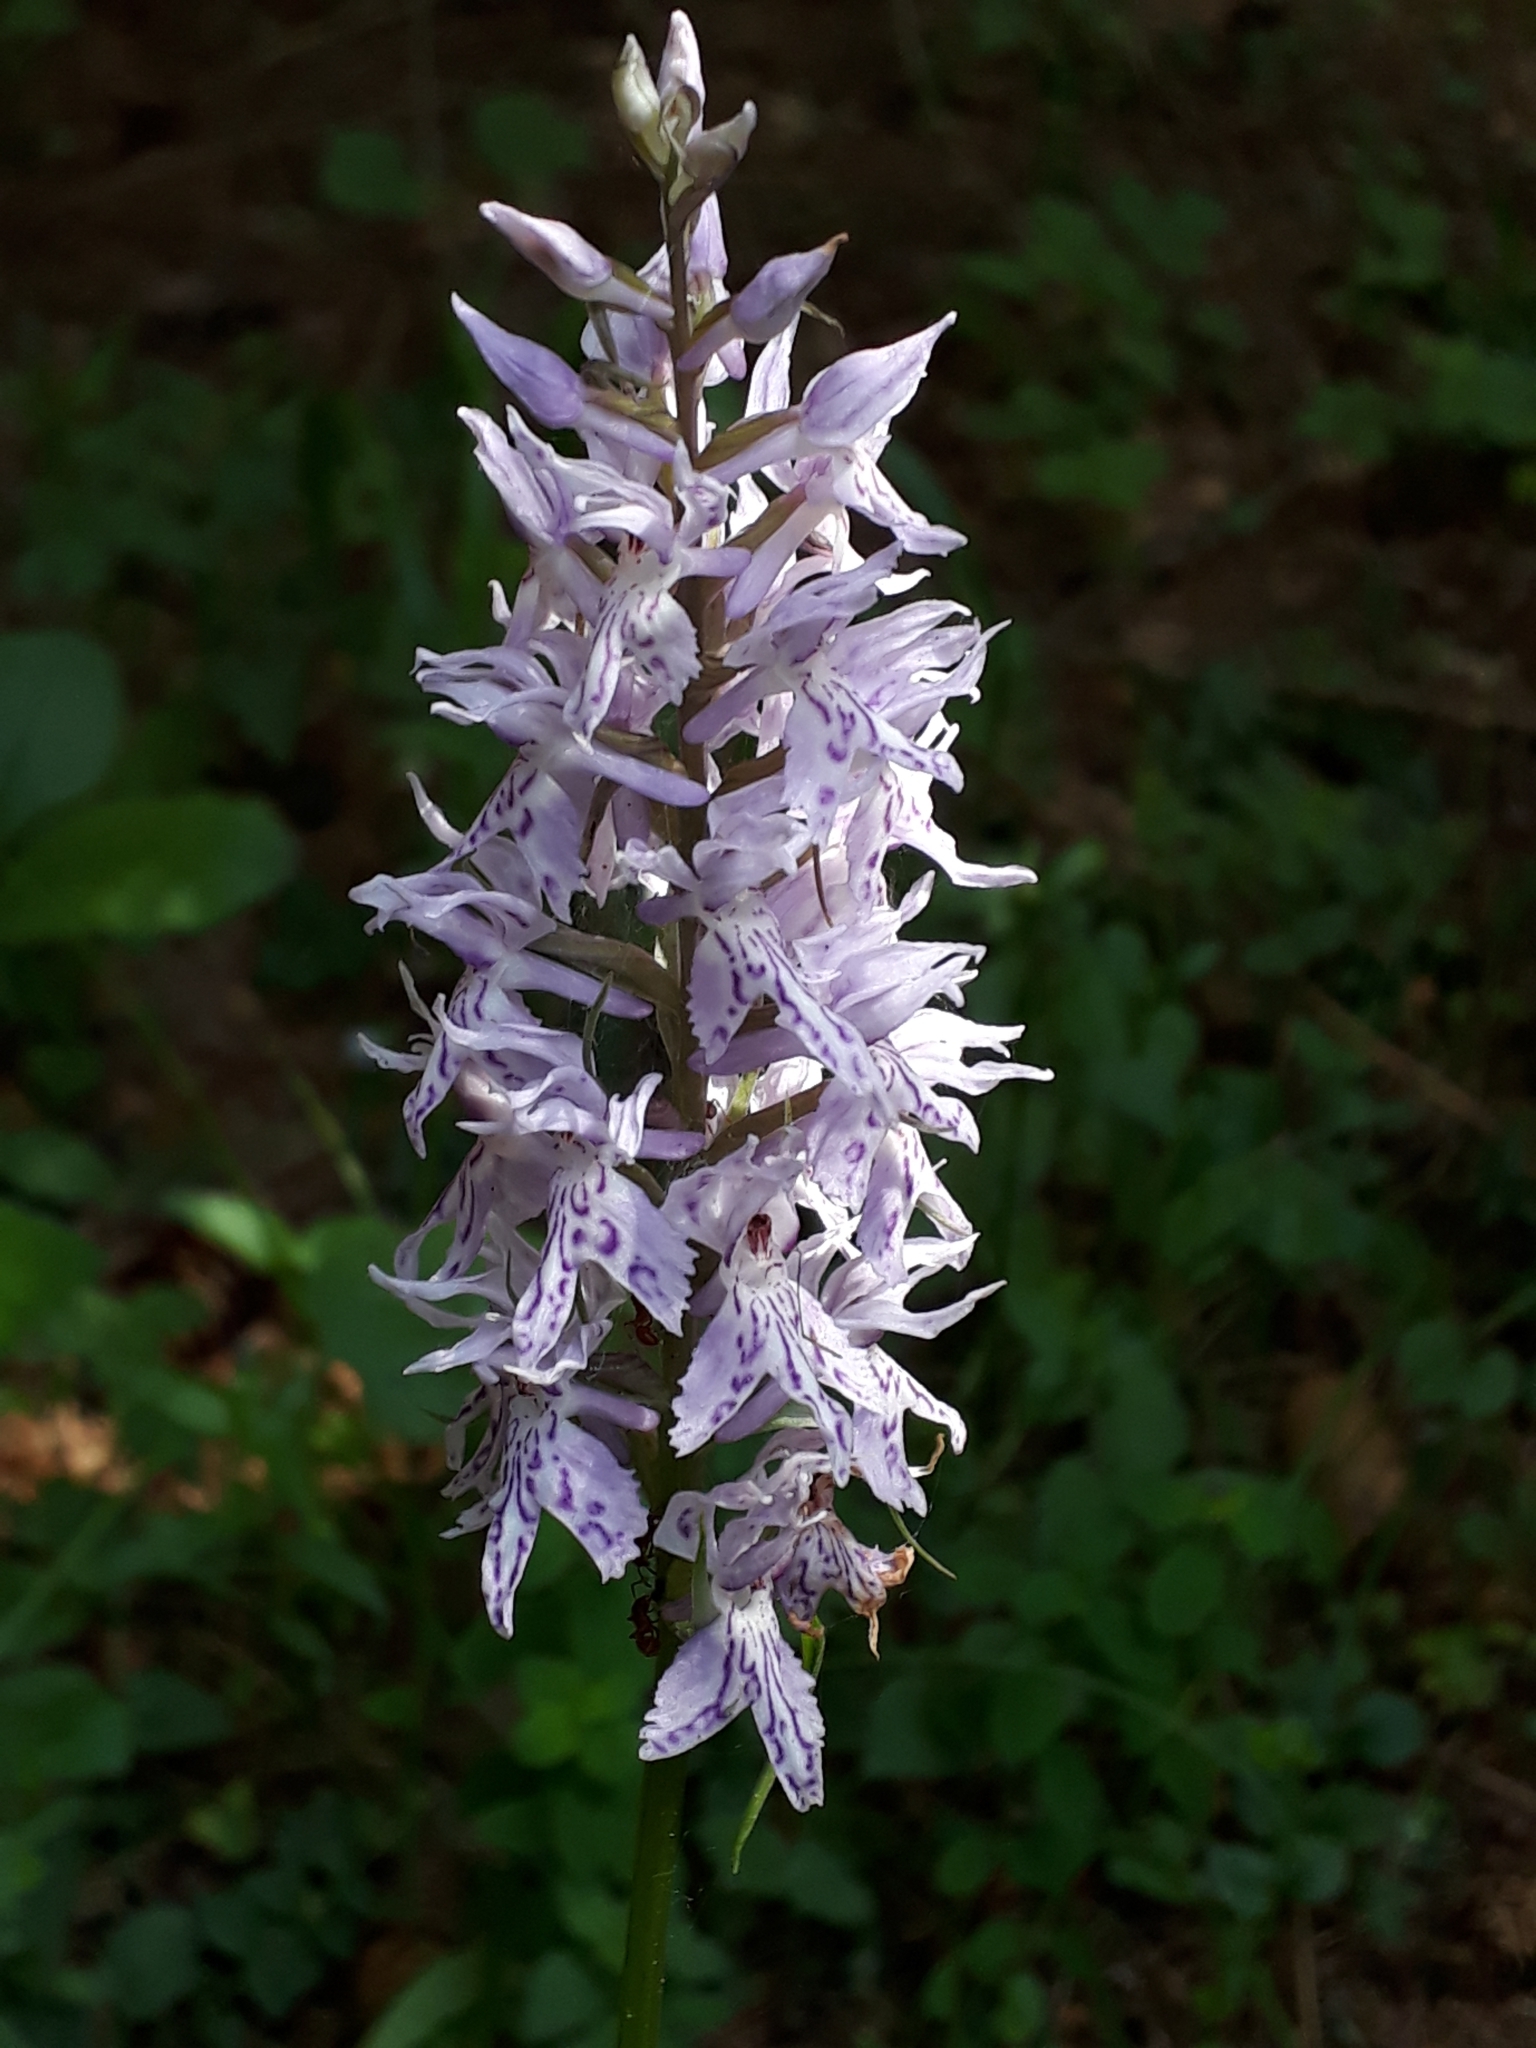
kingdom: Plantae
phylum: Tracheophyta
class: Liliopsida
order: Asparagales
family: Orchidaceae
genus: Dactylorhiza
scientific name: Dactylorhiza maculata
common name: Heath spotted-orchid
